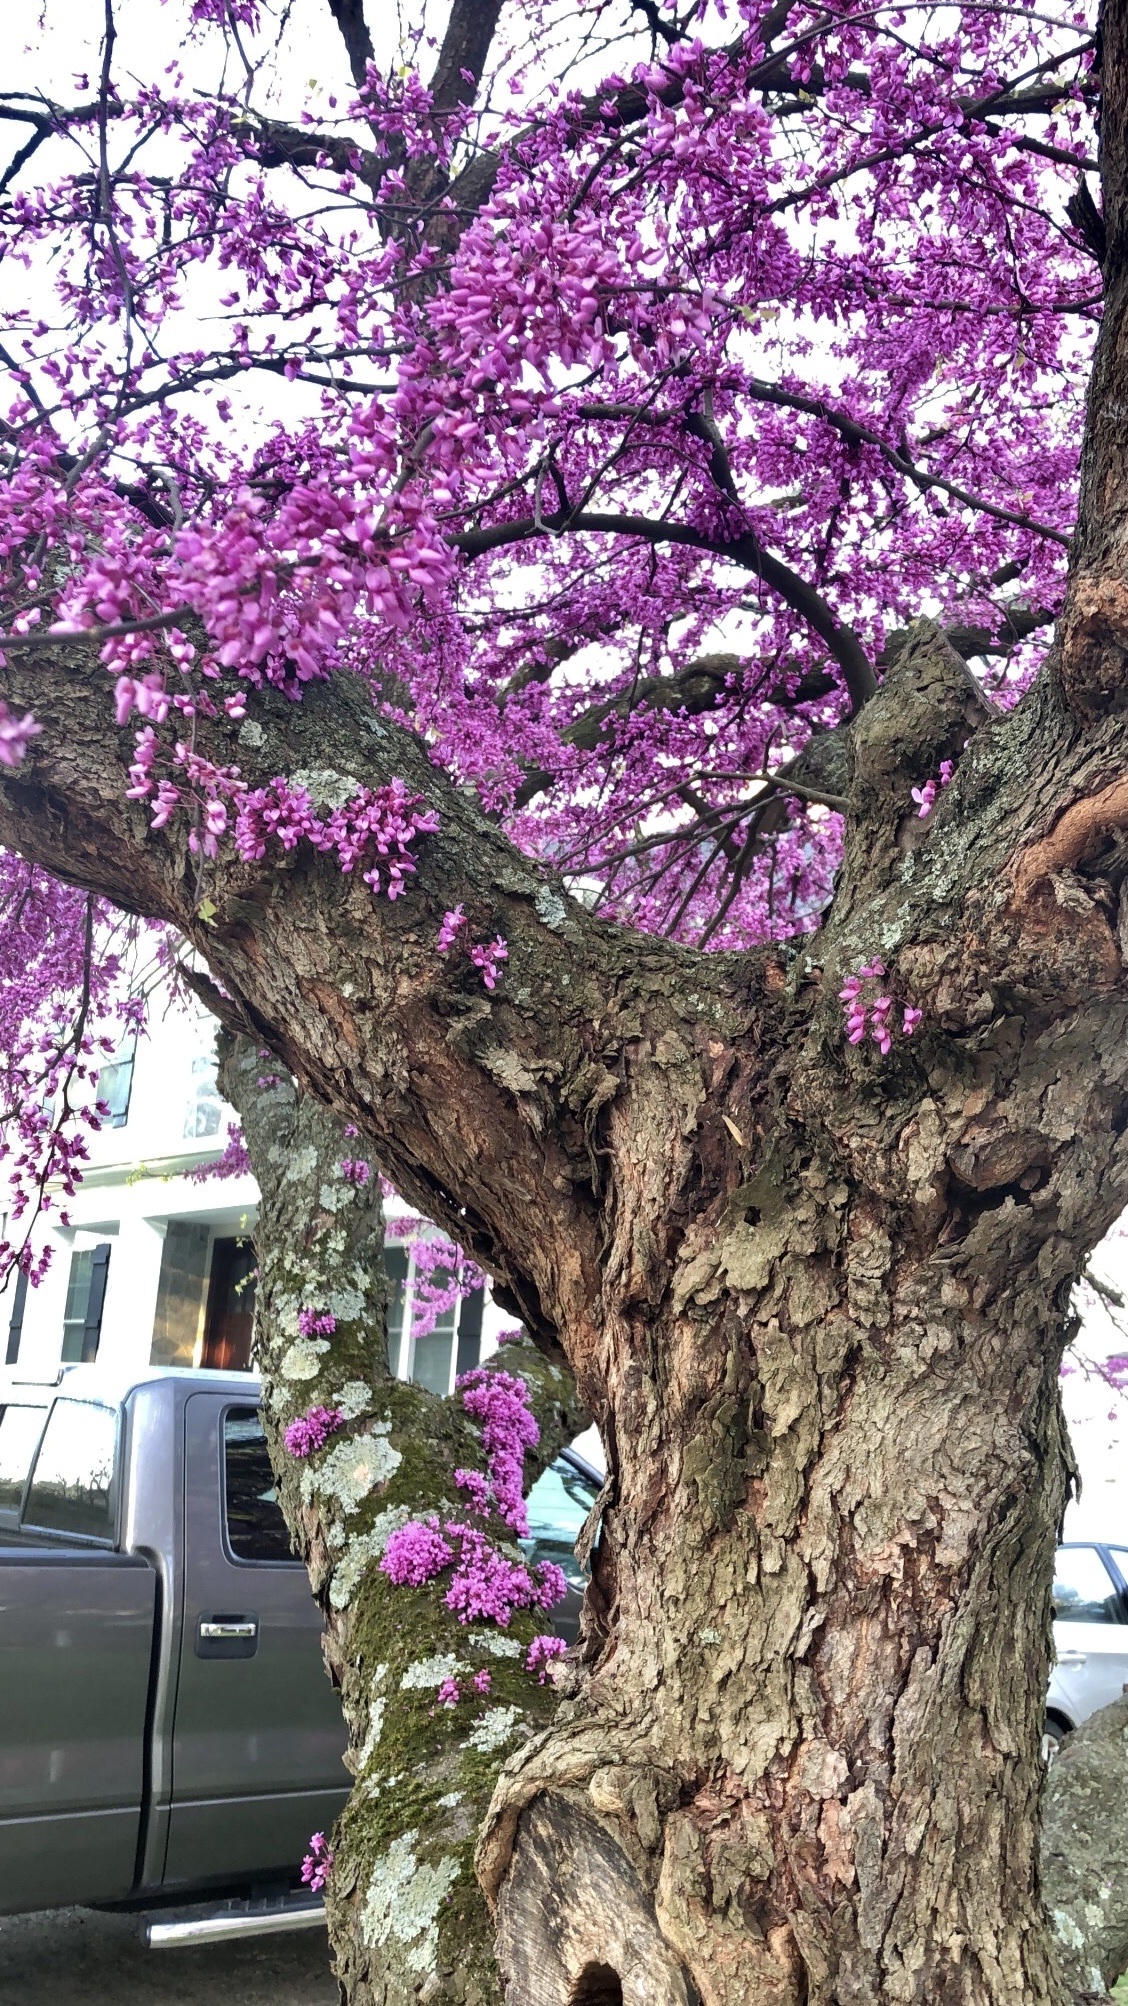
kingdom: Plantae
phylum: Tracheophyta
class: Magnoliopsida
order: Fabales
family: Fabaceae
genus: Cercis
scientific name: Cercis canadensis
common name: Eastern redbud
